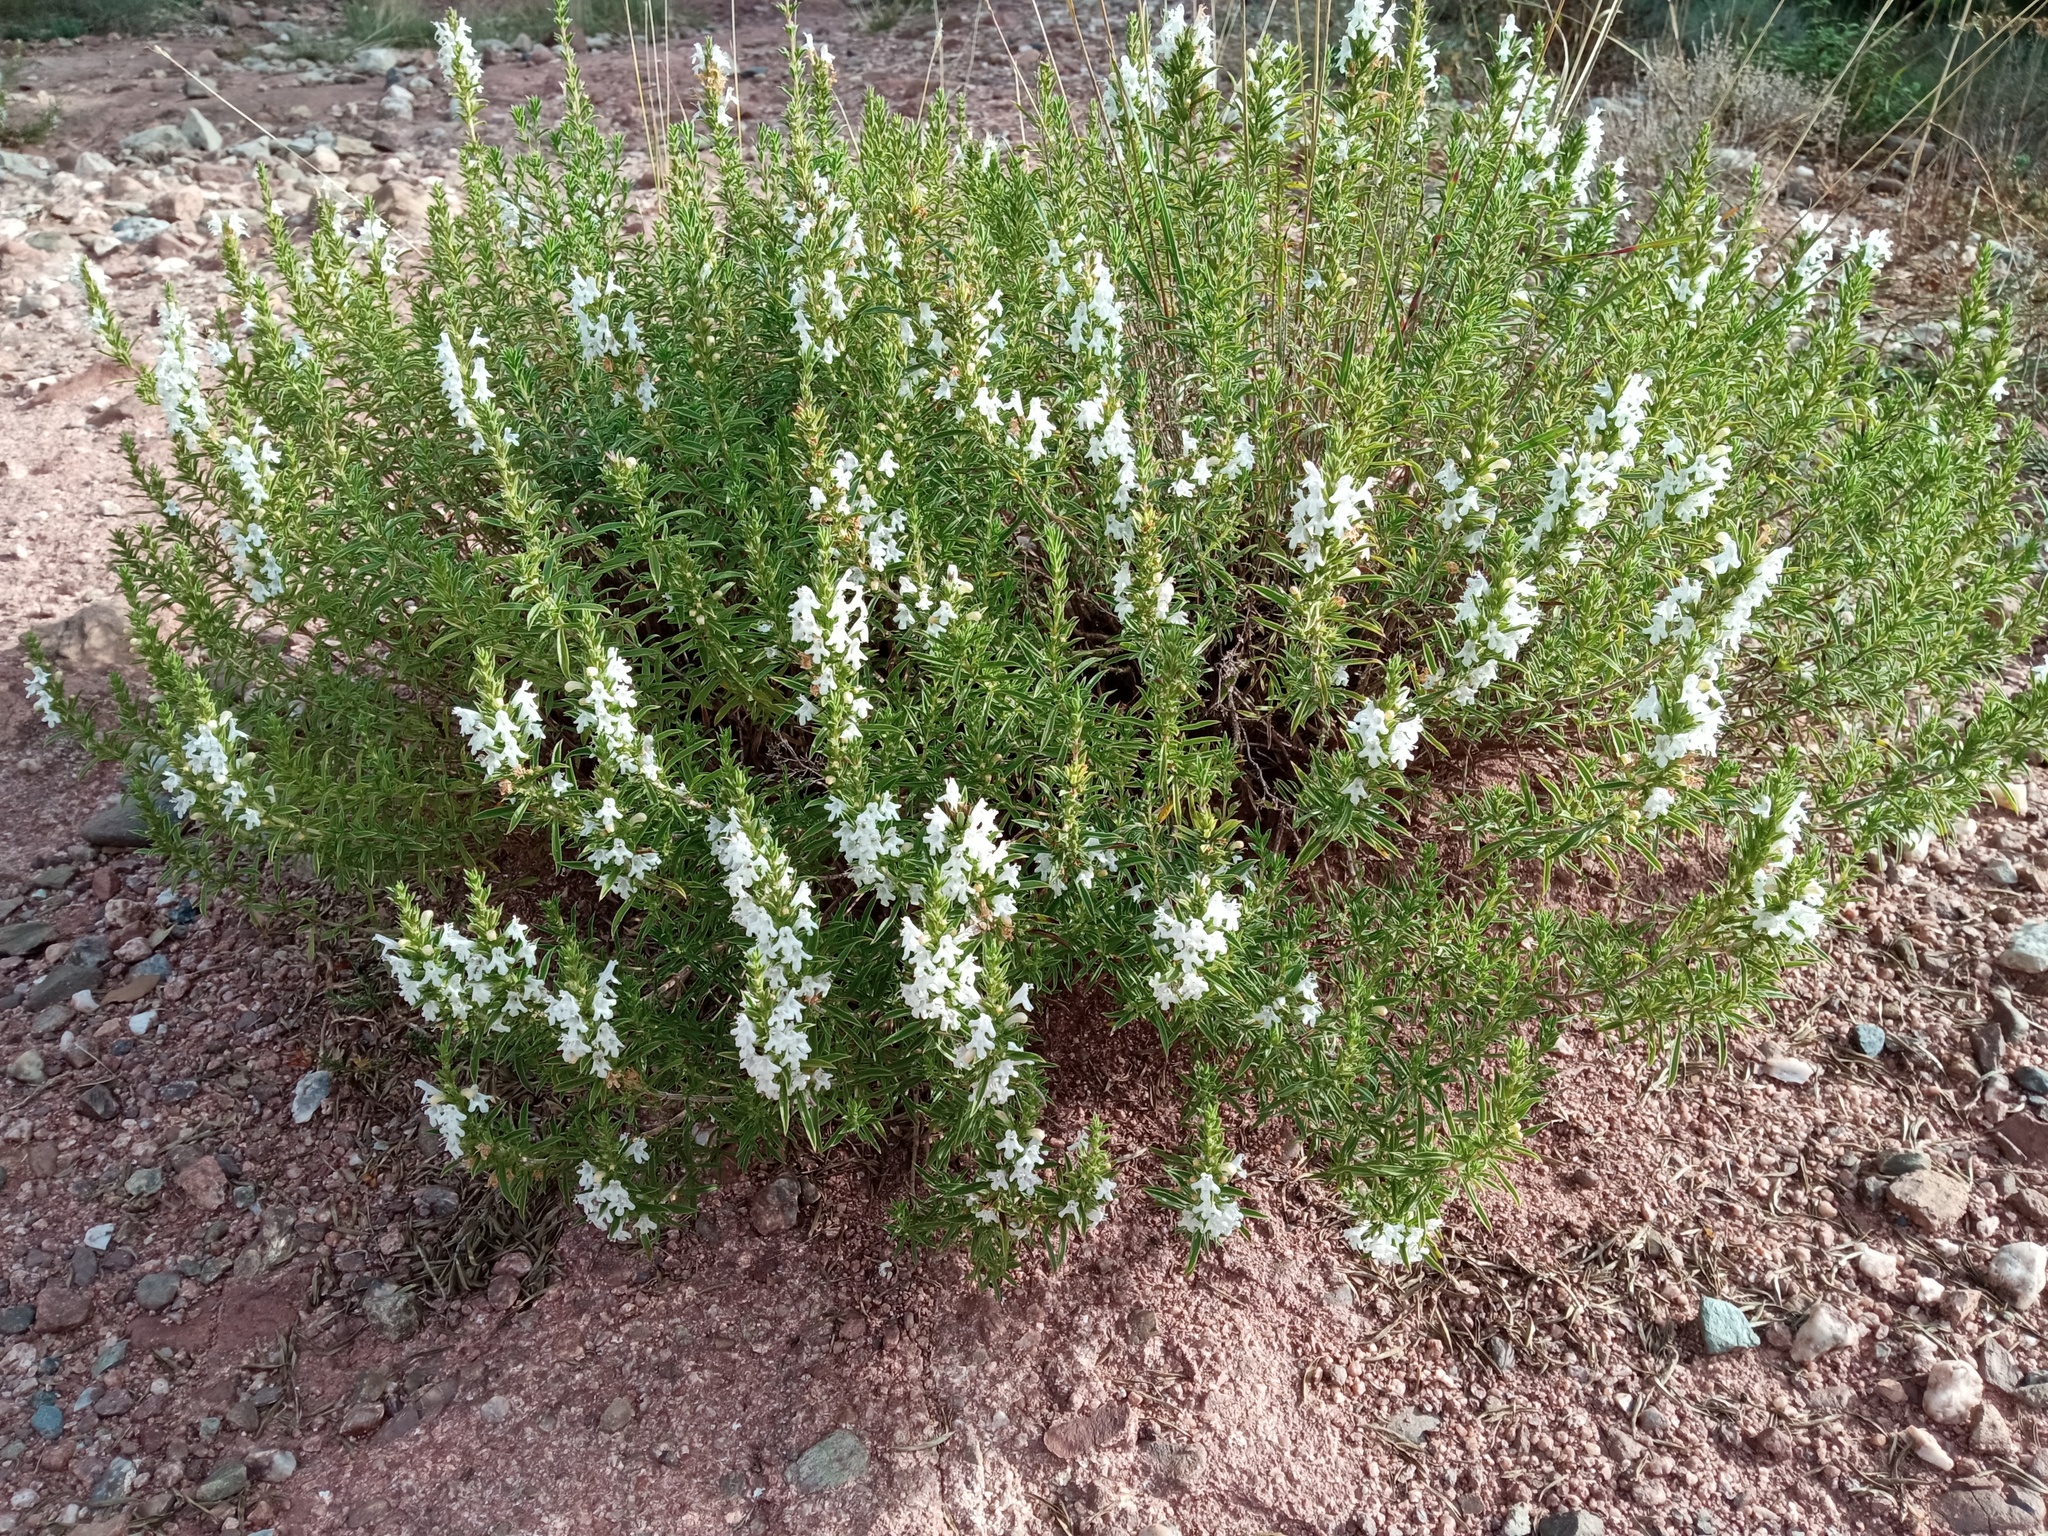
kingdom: Plantae
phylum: Tracheophyta
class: Magnoliopsida
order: Lamiales
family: Lamiaceae
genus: Satureja
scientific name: Satureja montana
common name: Winter savory
